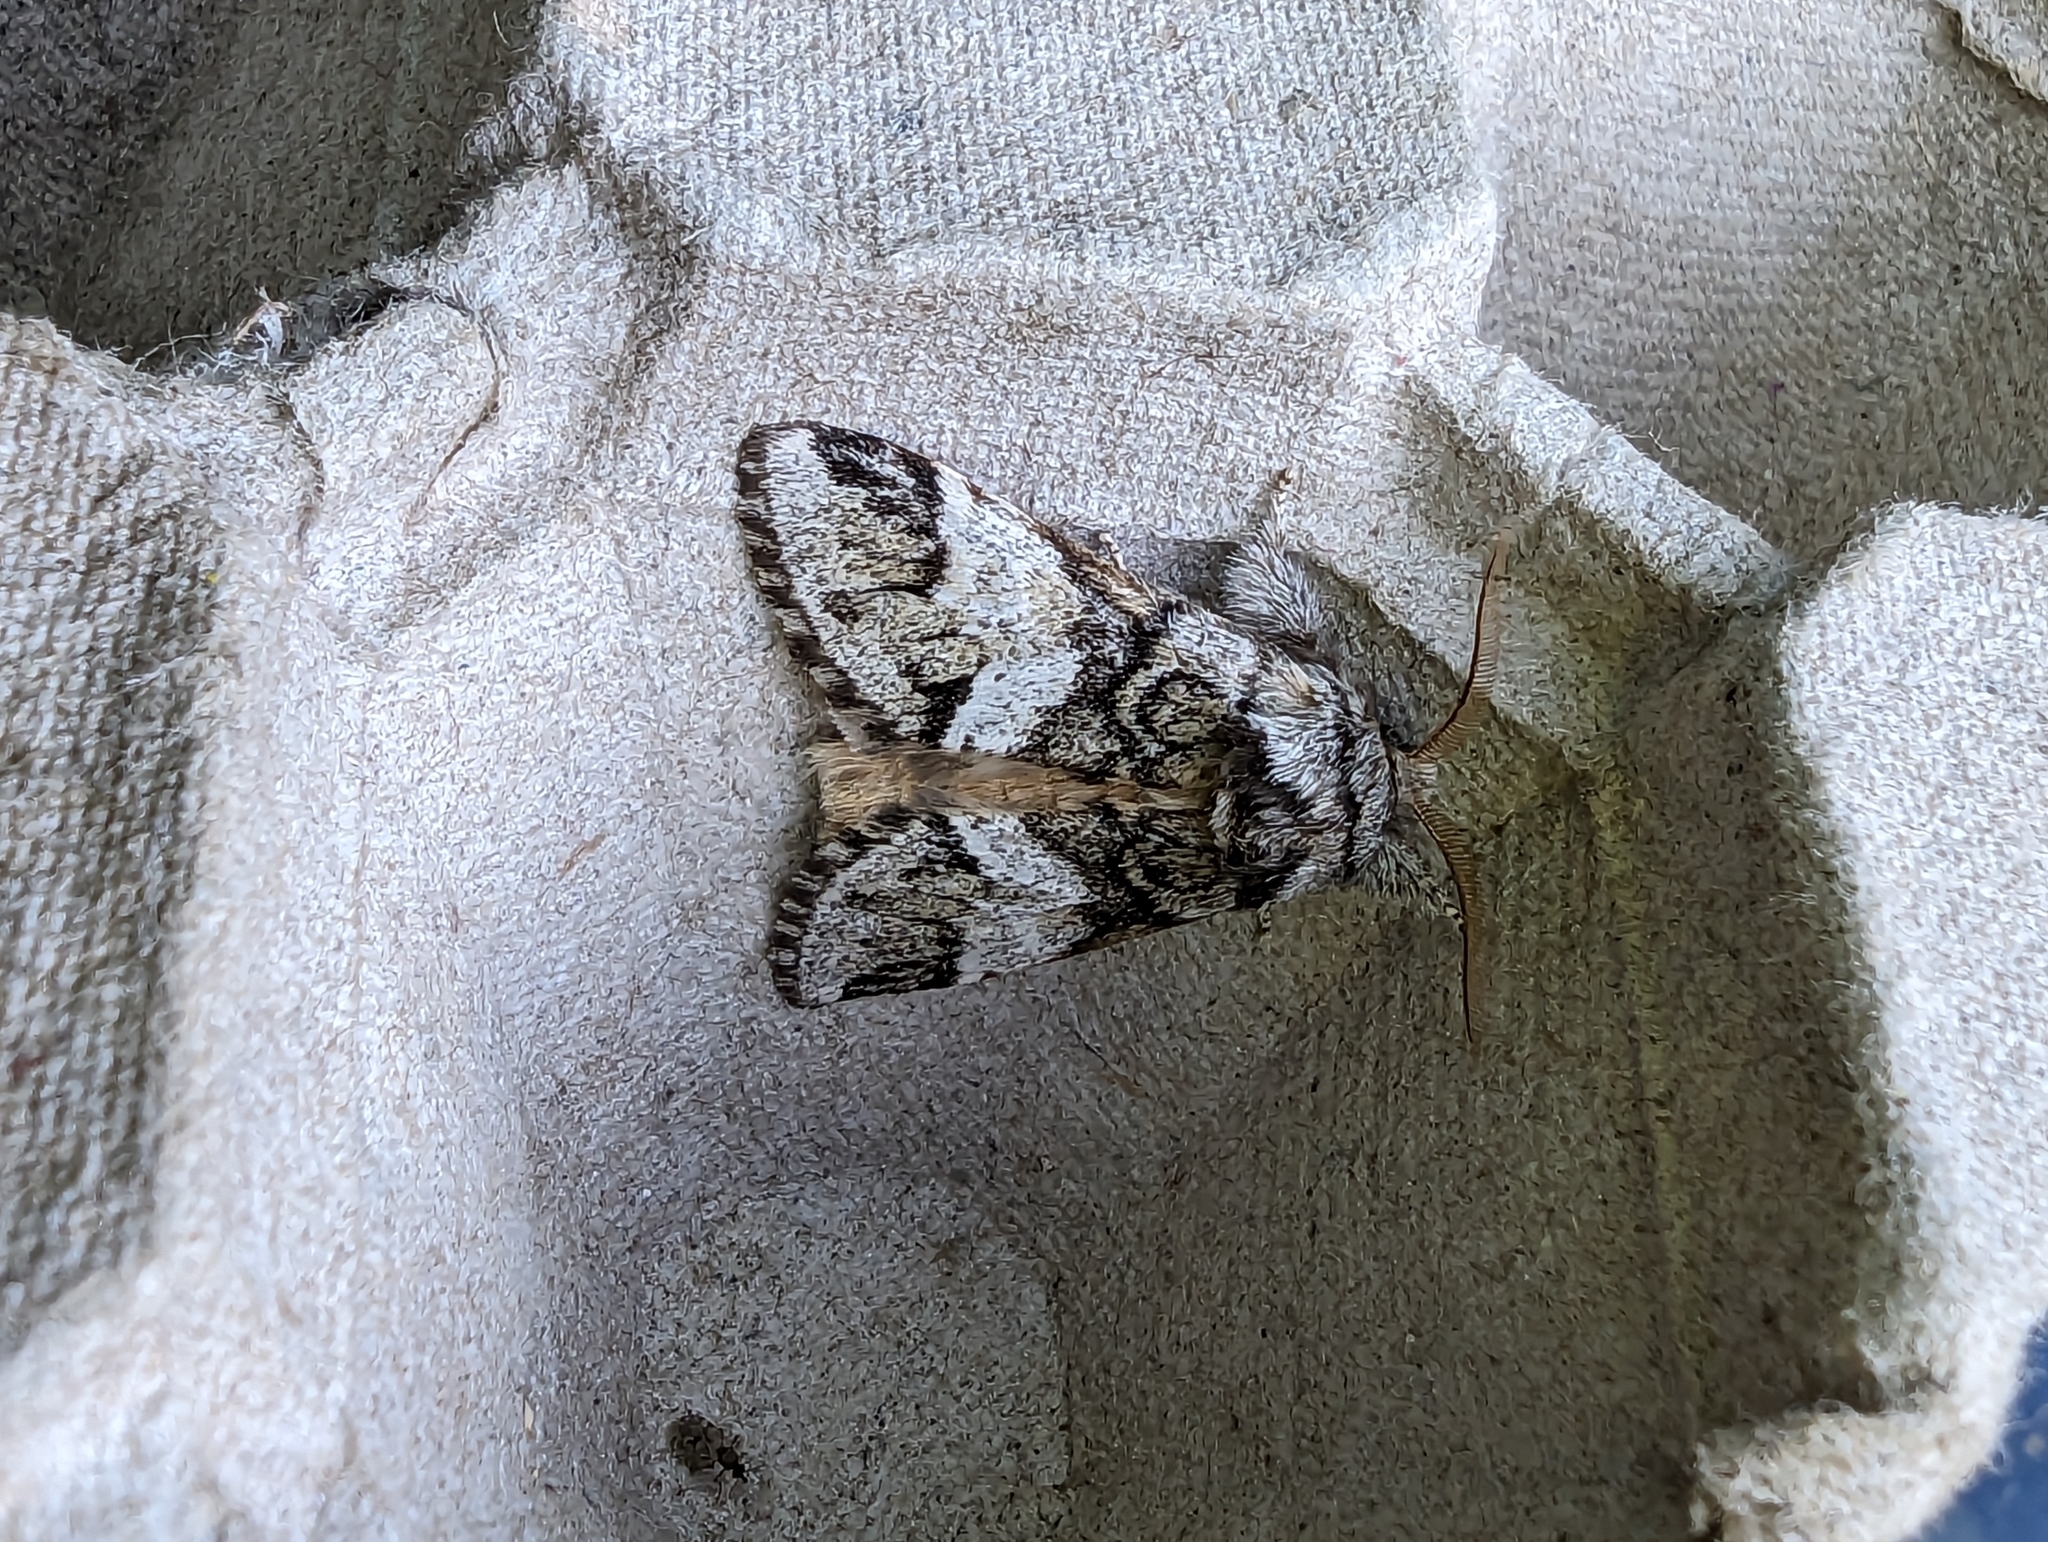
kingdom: Animalia
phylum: Arthropoda
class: Insecta
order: Lepidoptera
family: Notodontidae
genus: Drymonia
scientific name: Drymonia dodonaea
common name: Marbled brown
